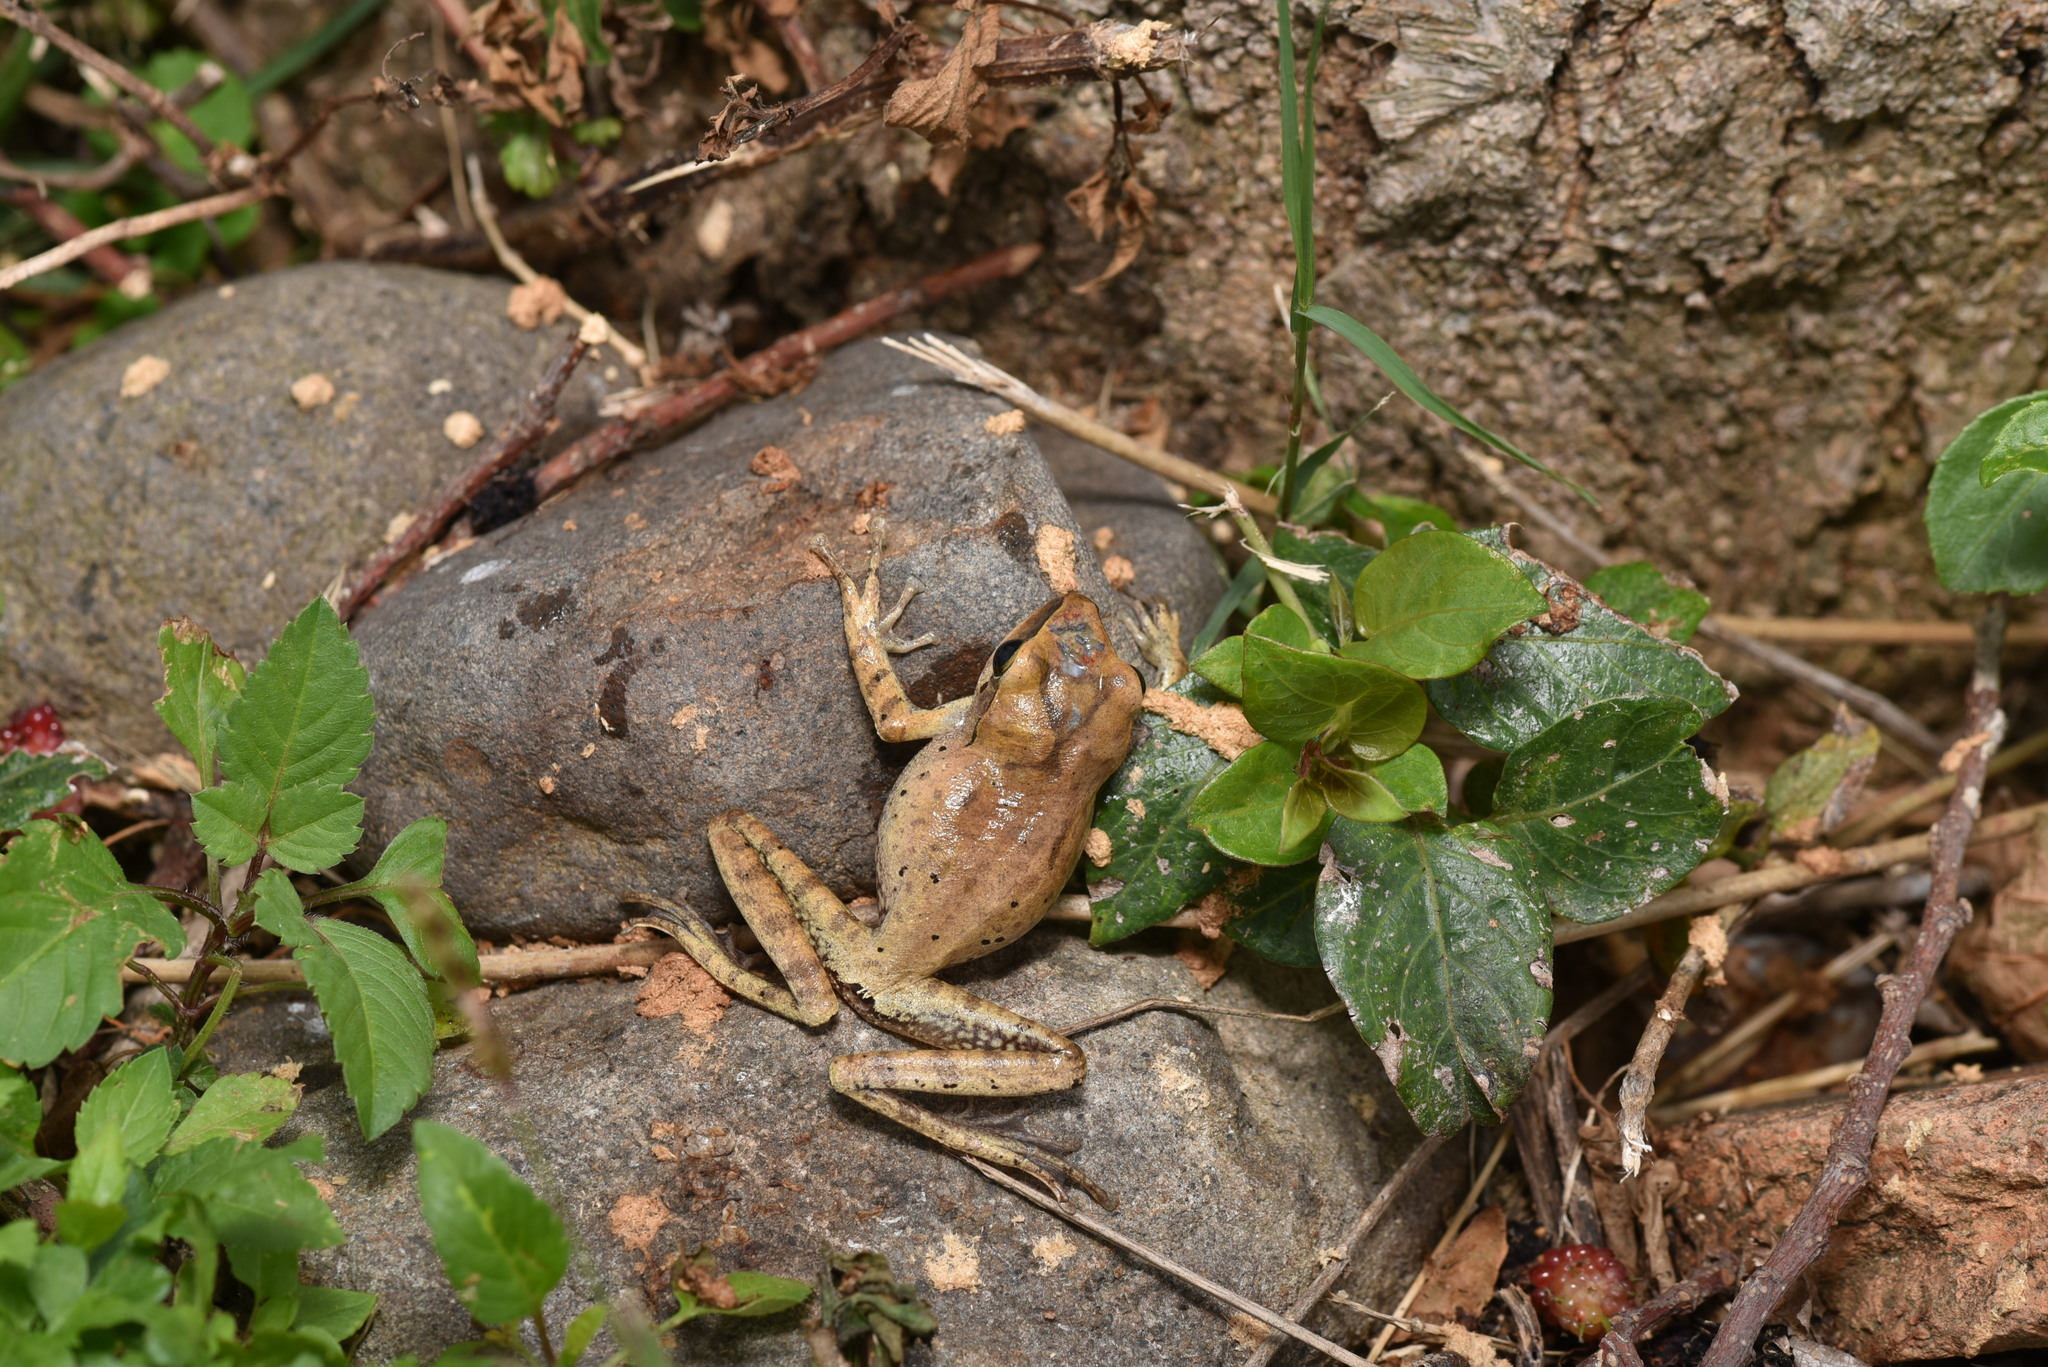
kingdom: Animalia
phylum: Chordata
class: Amphibia
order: Anura
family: Rhacophoridae
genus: Polypedates
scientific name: Polypedates megacephalus
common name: Hong kong whipping frog
